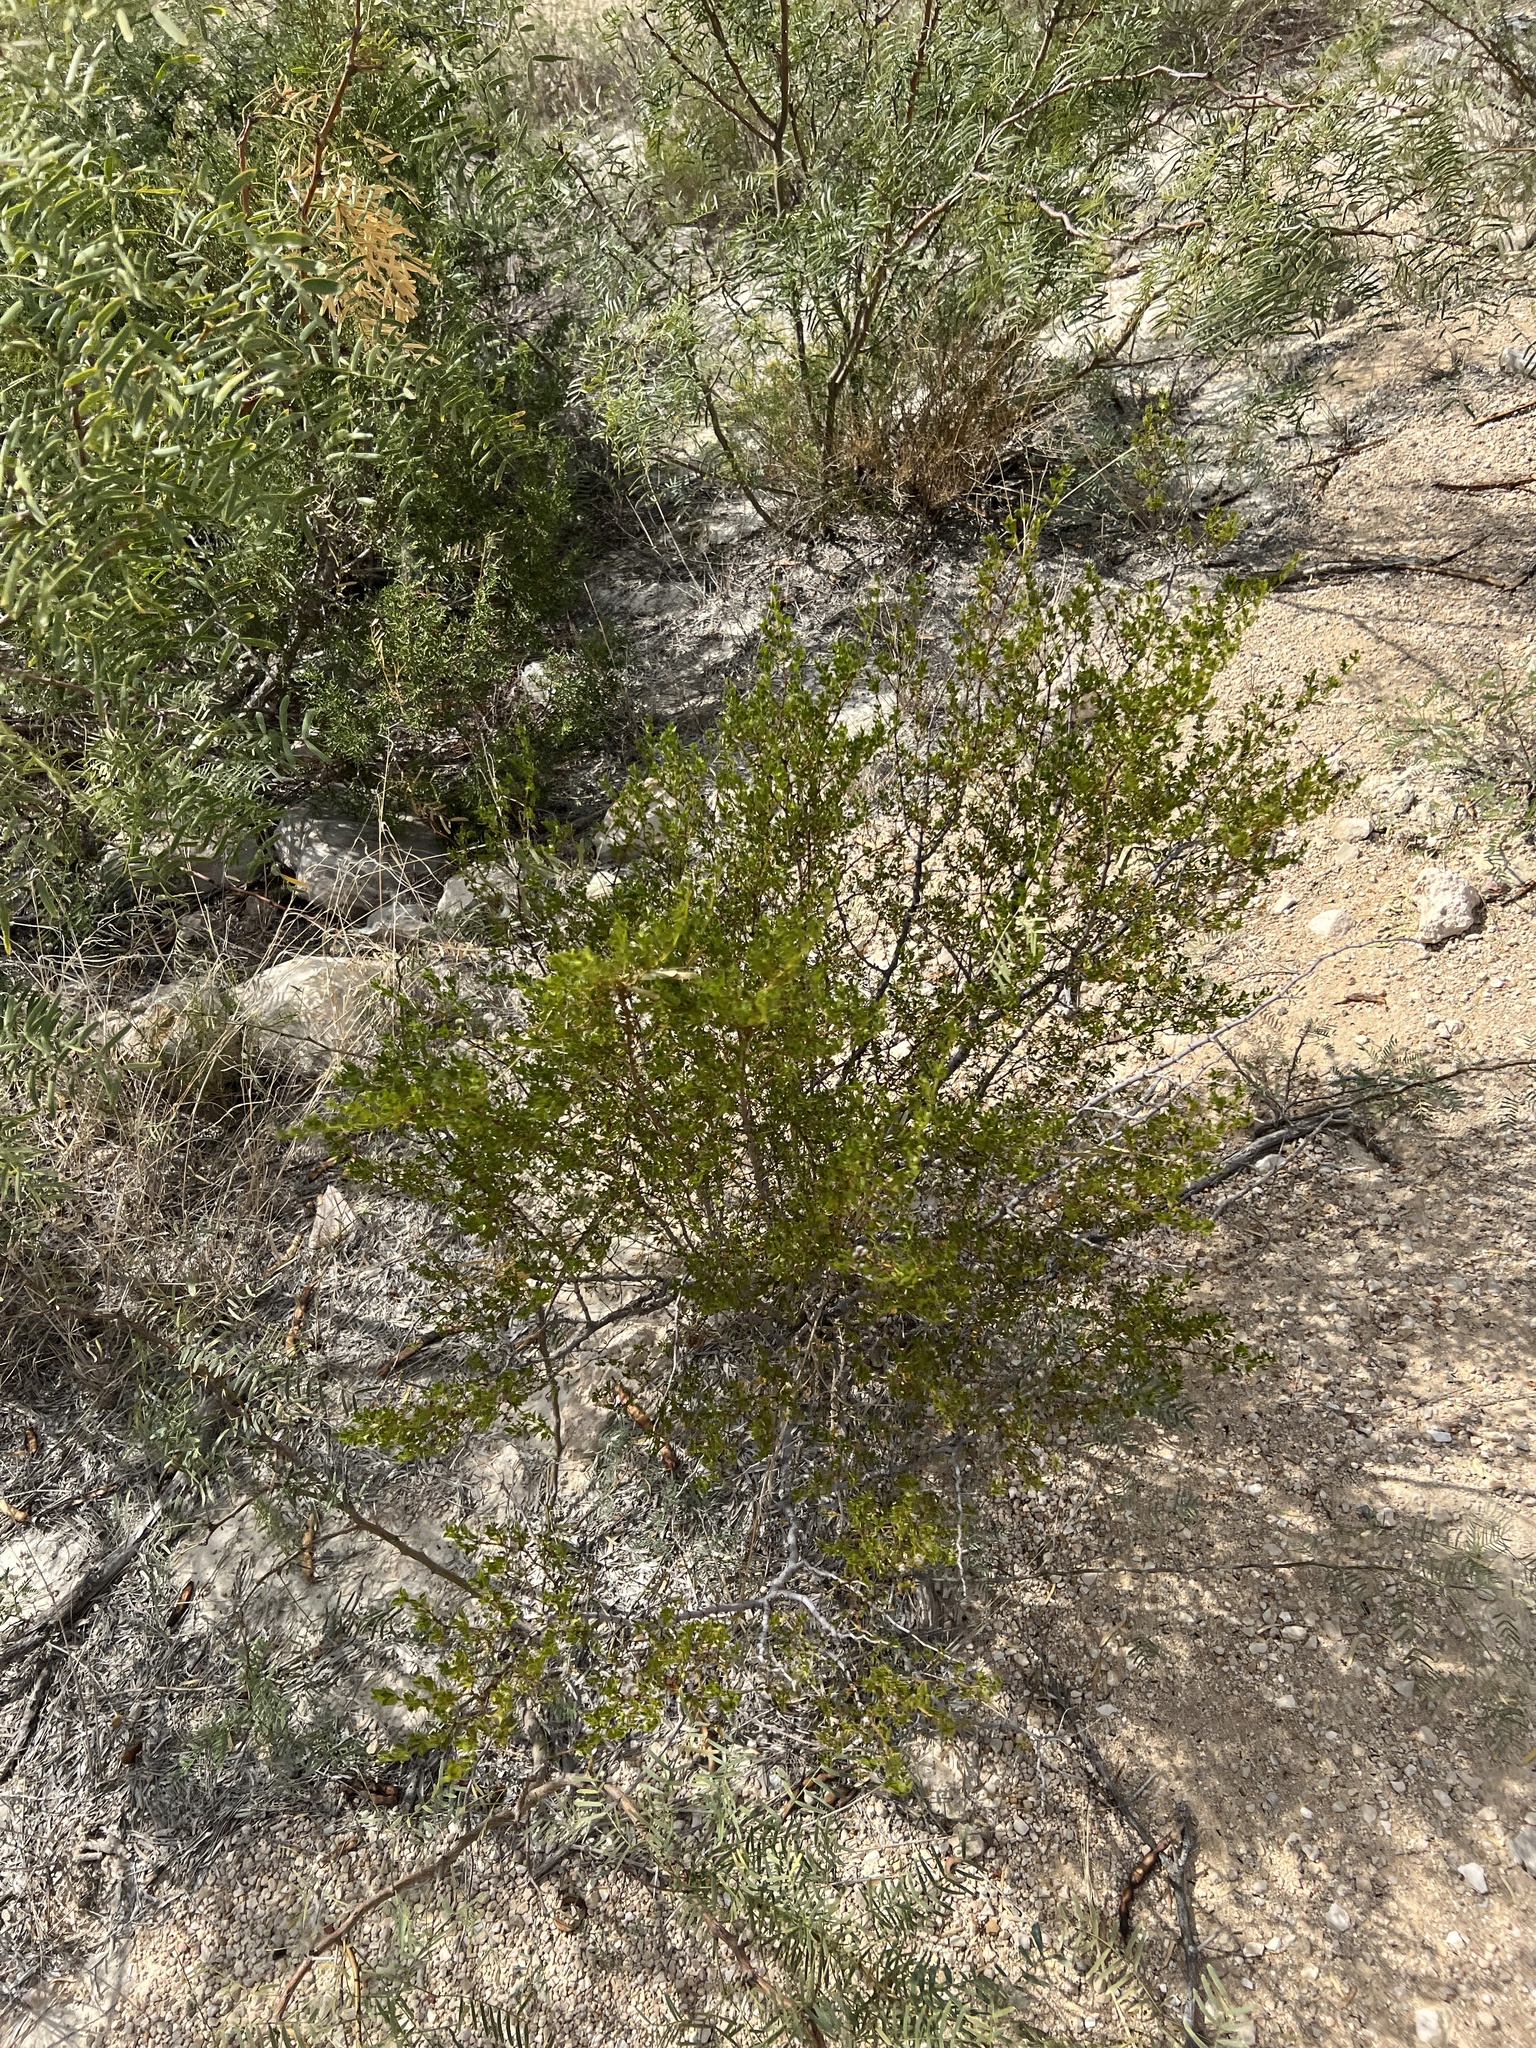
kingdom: Plantae
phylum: Tracheophyta
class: Magnoliopsida
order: Zygophyllales
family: Zygophyllaceae
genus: Larrea
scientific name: Larrea tridentata
